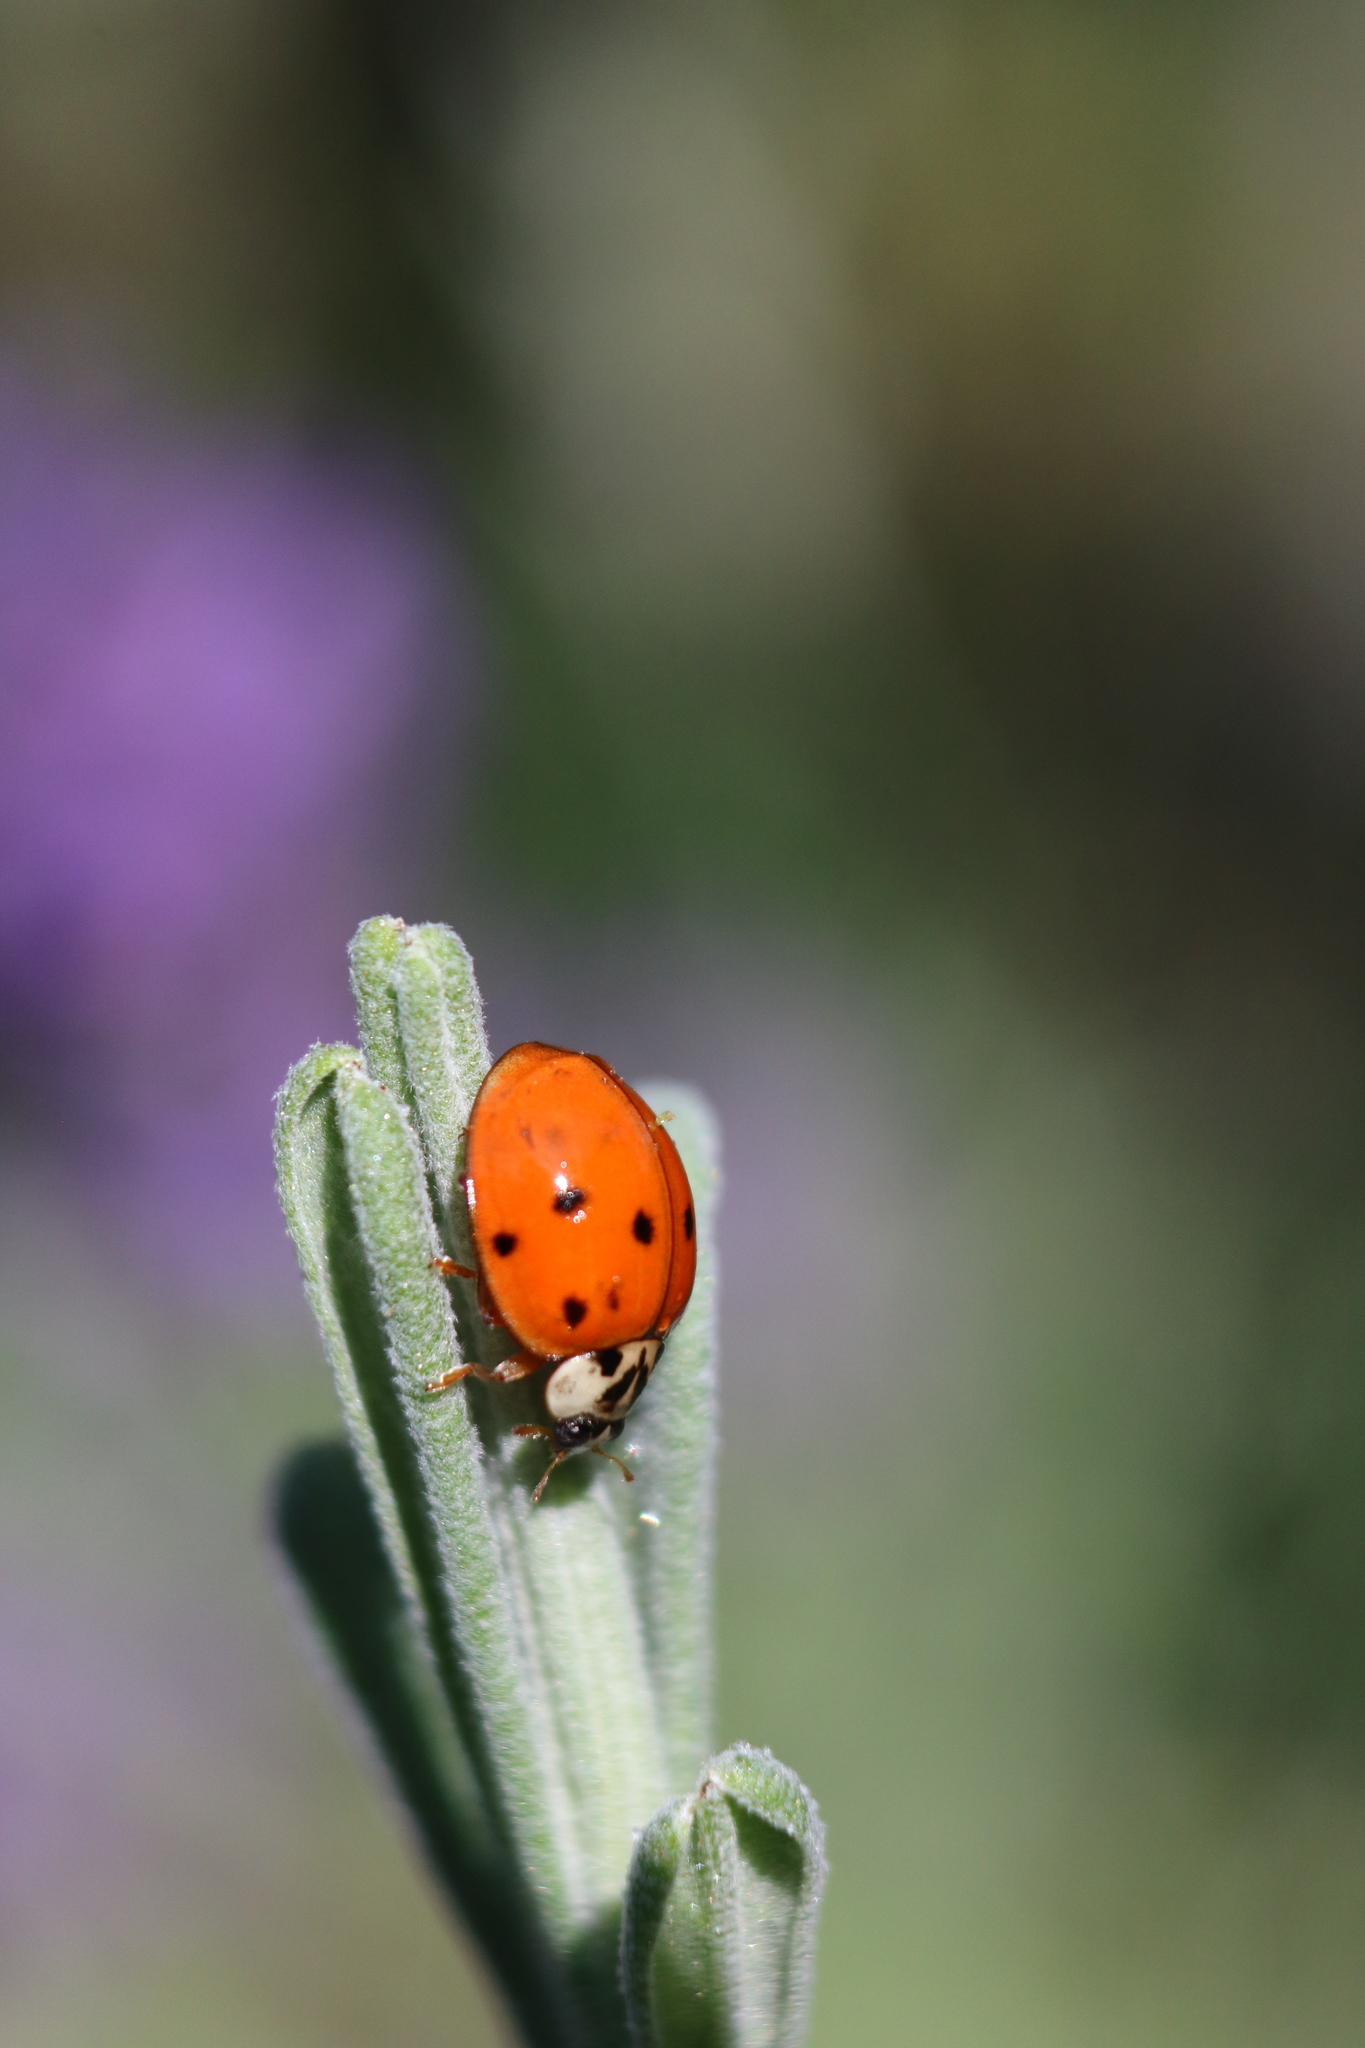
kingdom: Animalia
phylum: Arthropoda
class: Insecta
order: Coleoptera
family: Coccinellidae
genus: Harmonia
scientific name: Harmonia axyridis
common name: Harlequin ladybird
